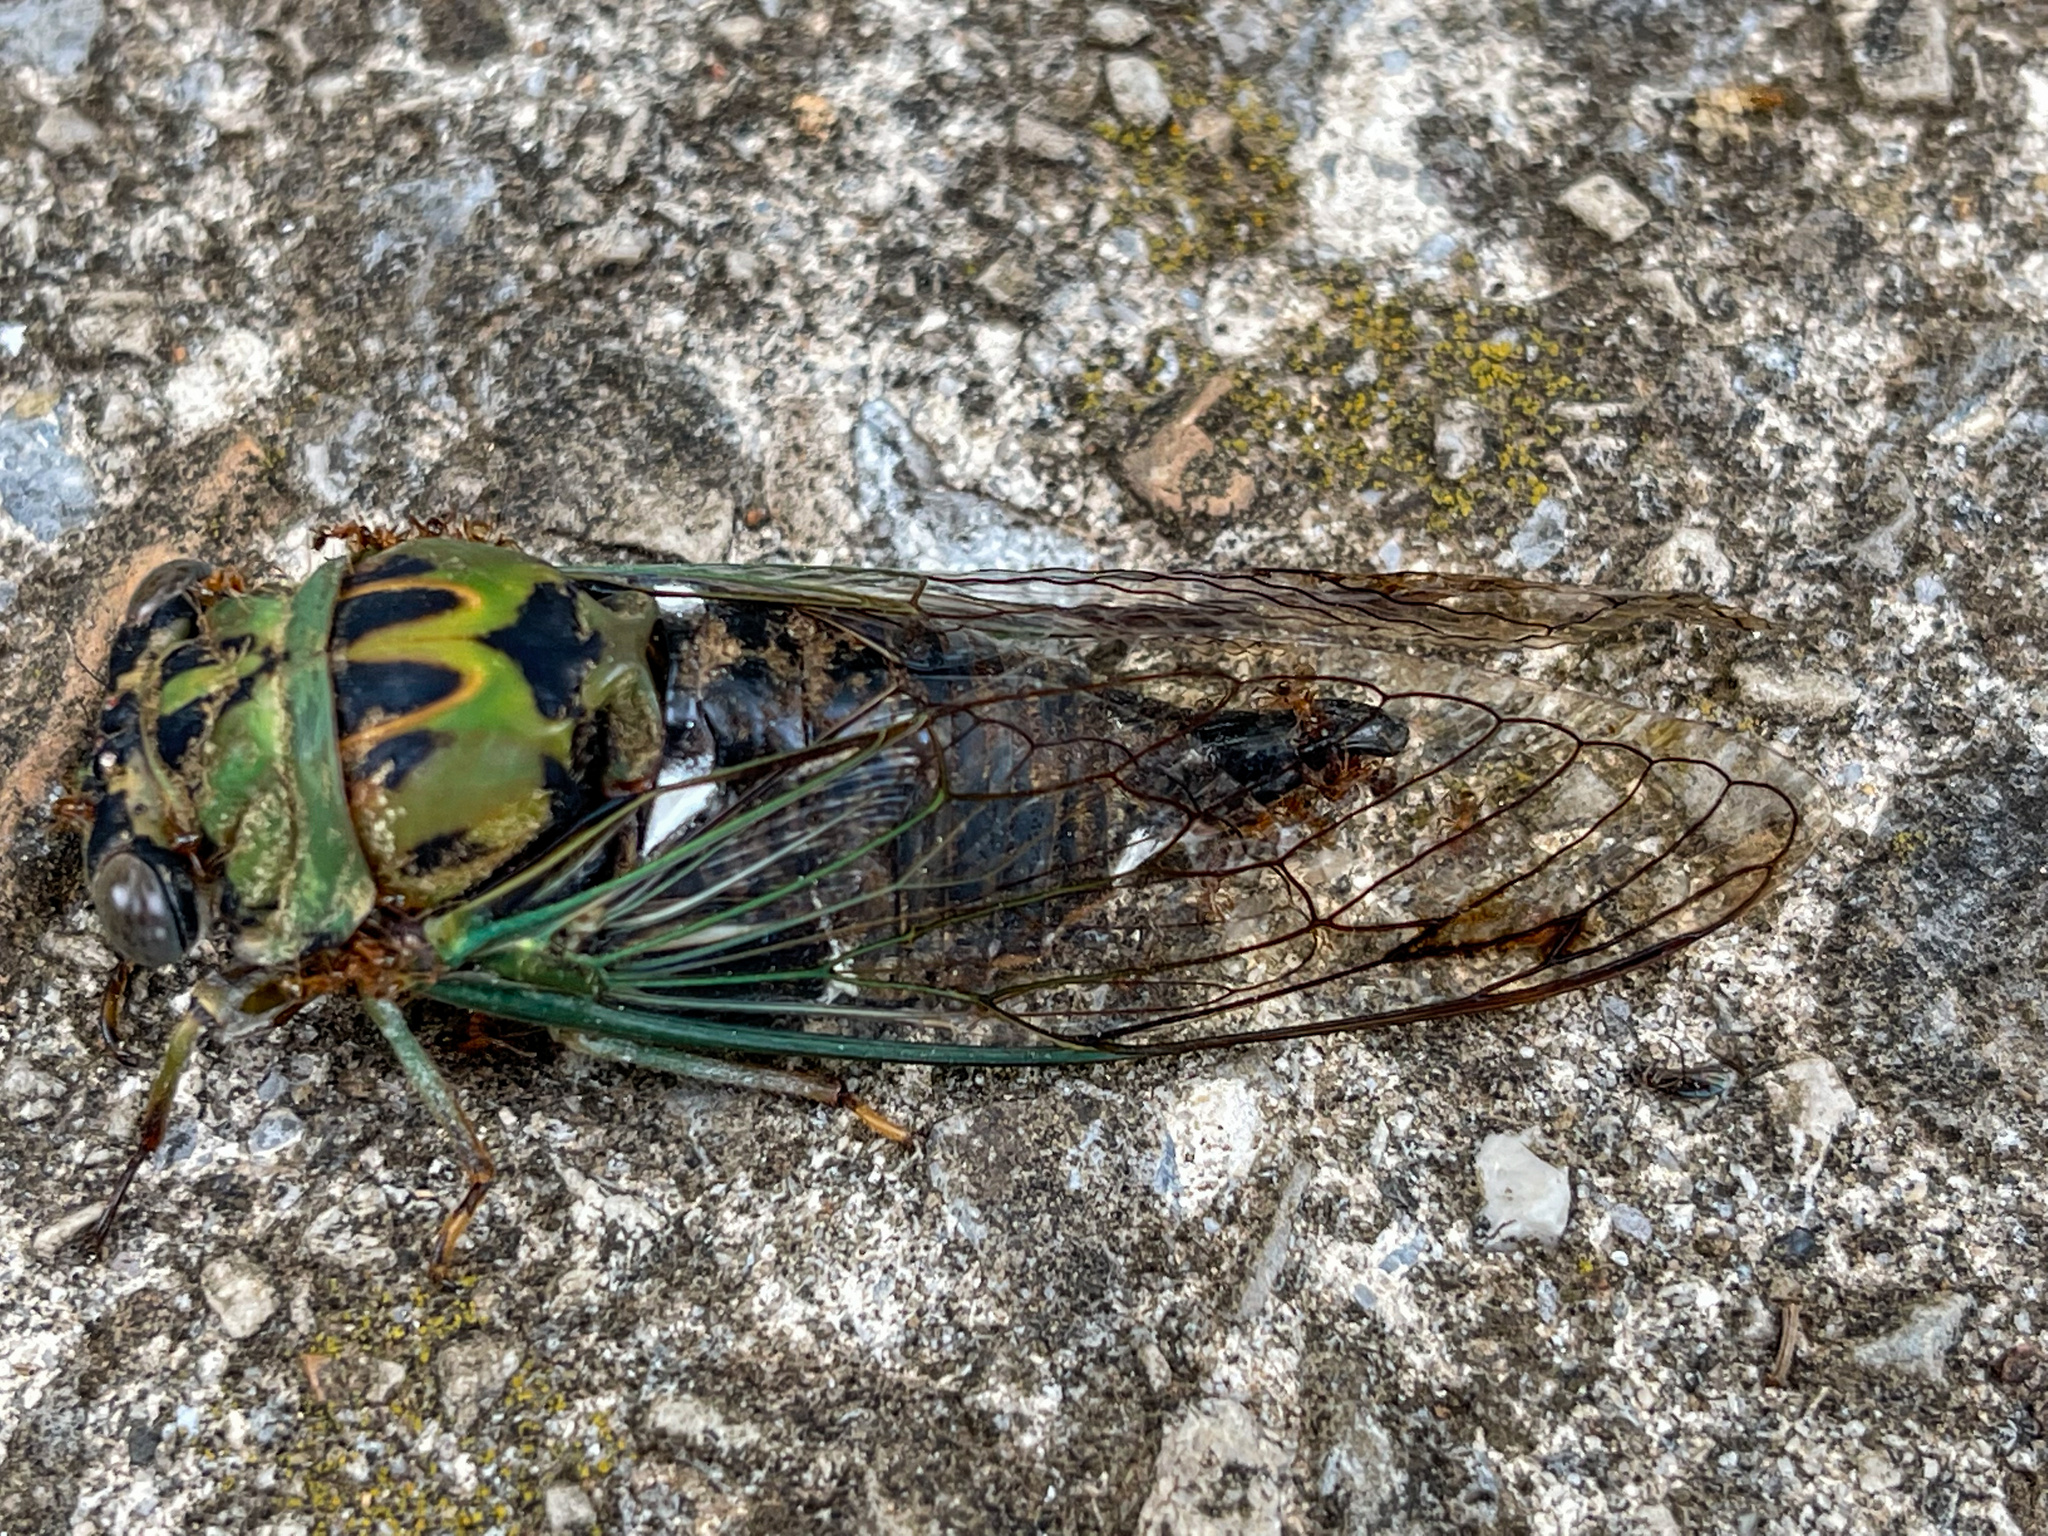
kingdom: Animalia
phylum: Arthropoda
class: Insecta
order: Hemiptera
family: Cicadidae
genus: Neotibicen
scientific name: Neotibicen pruinosus
